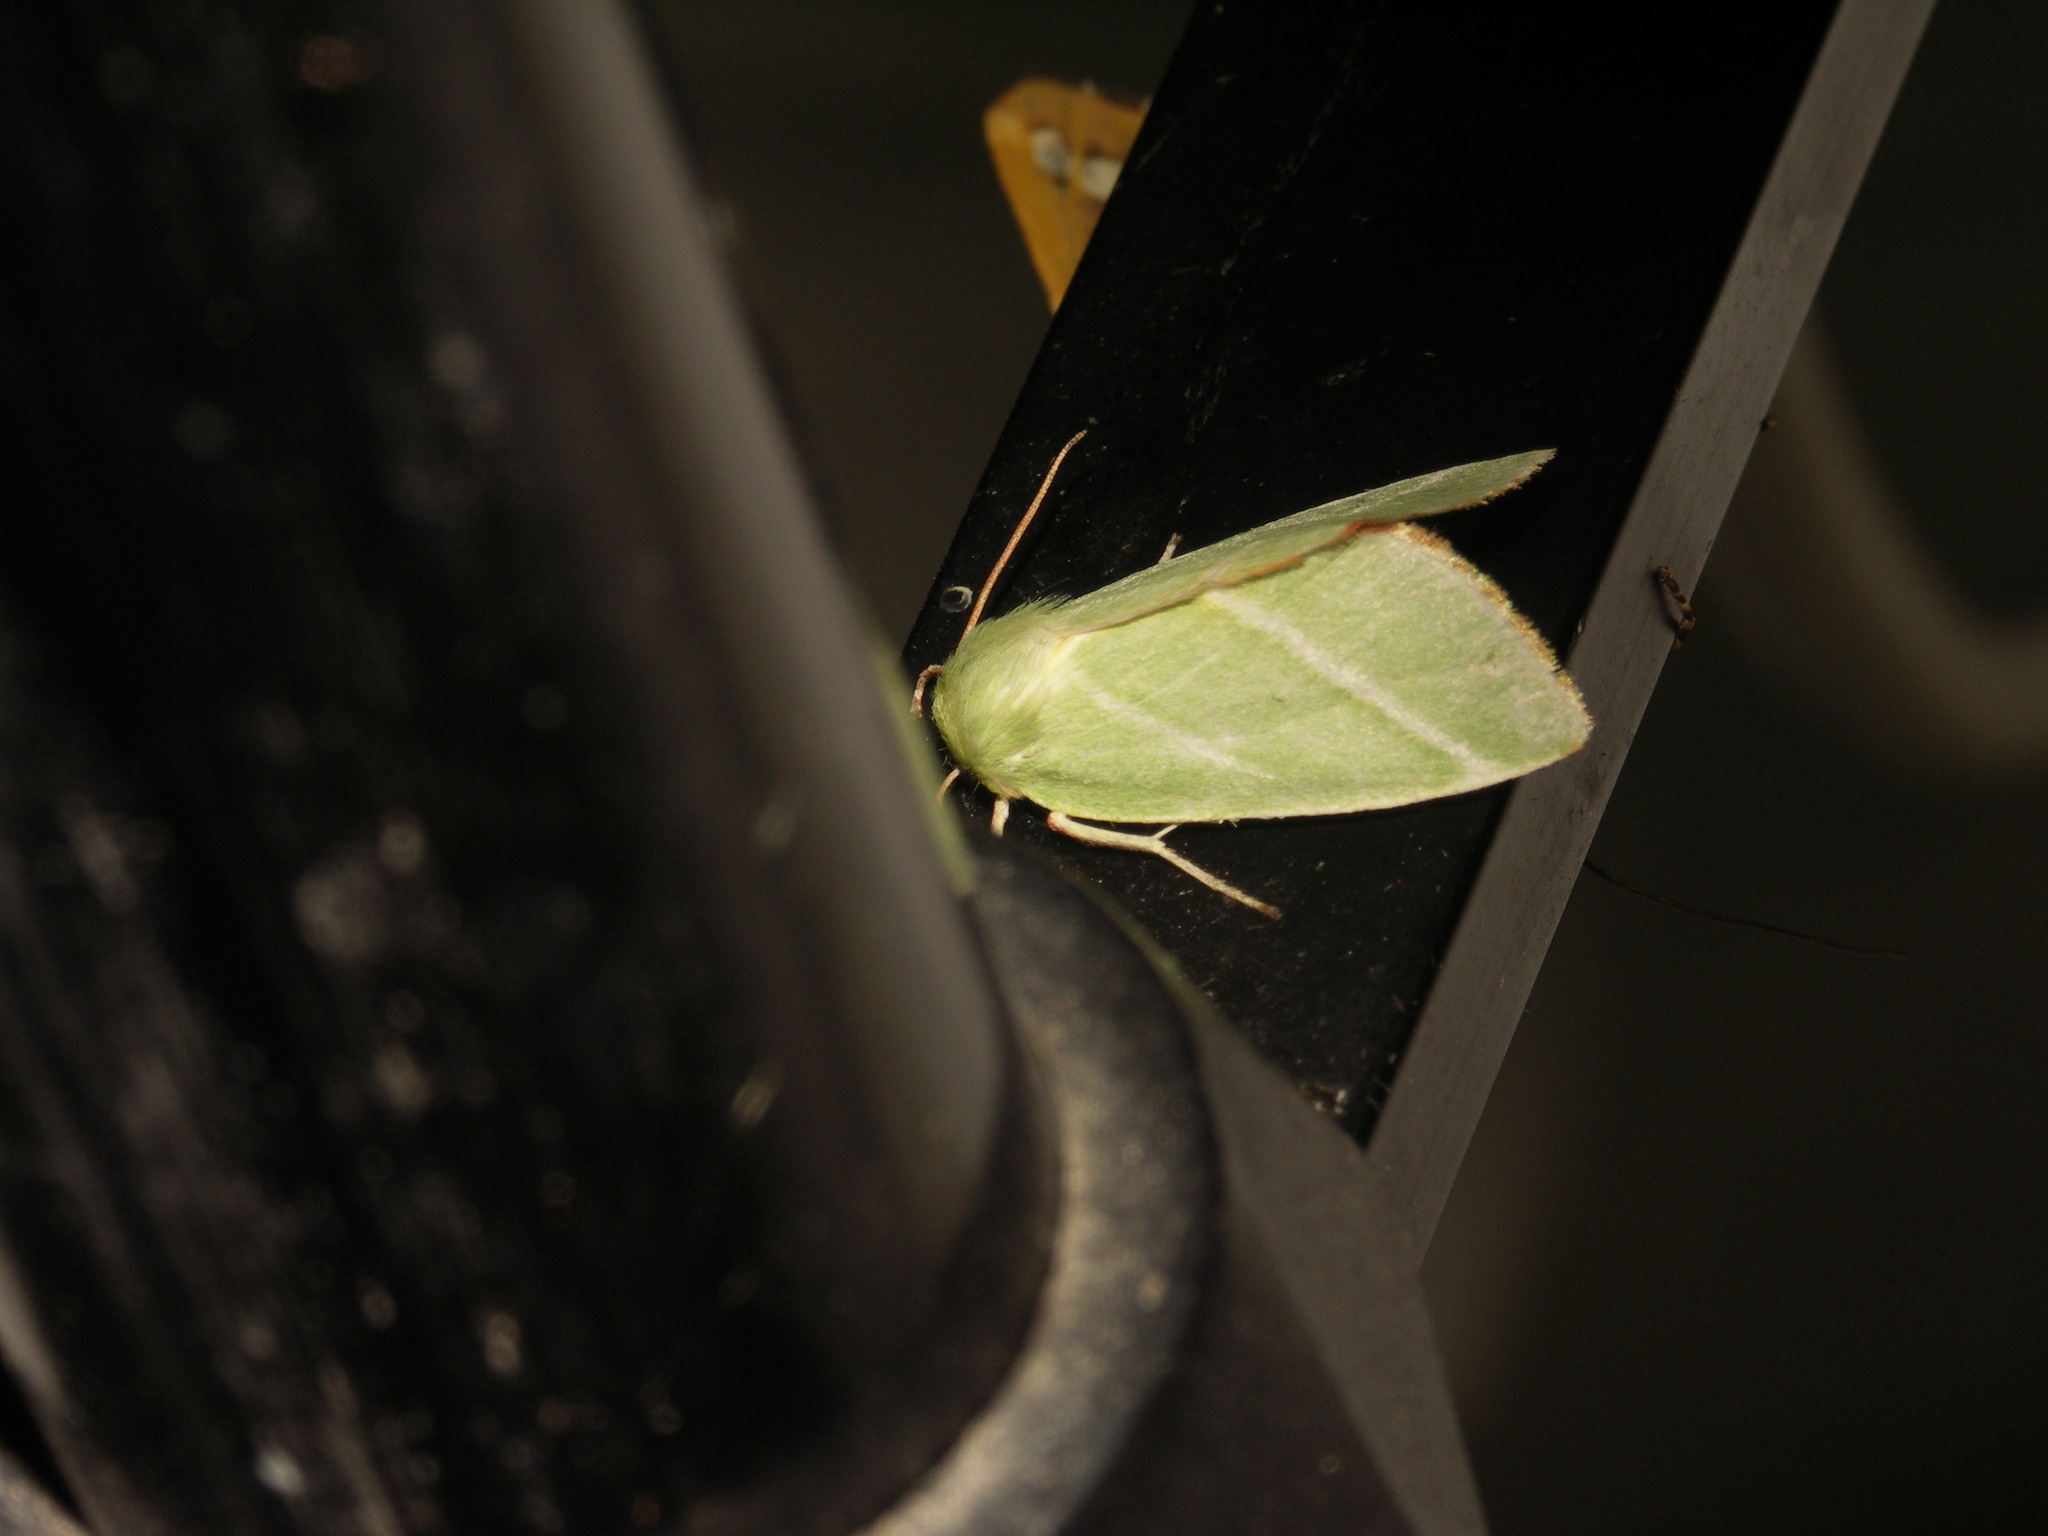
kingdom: Animalia
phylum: Arthropoda
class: Insecta
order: Lepidoptera
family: Nolidae
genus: Pseudoips
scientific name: Pseudoips prasinana
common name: Green silver-lines
